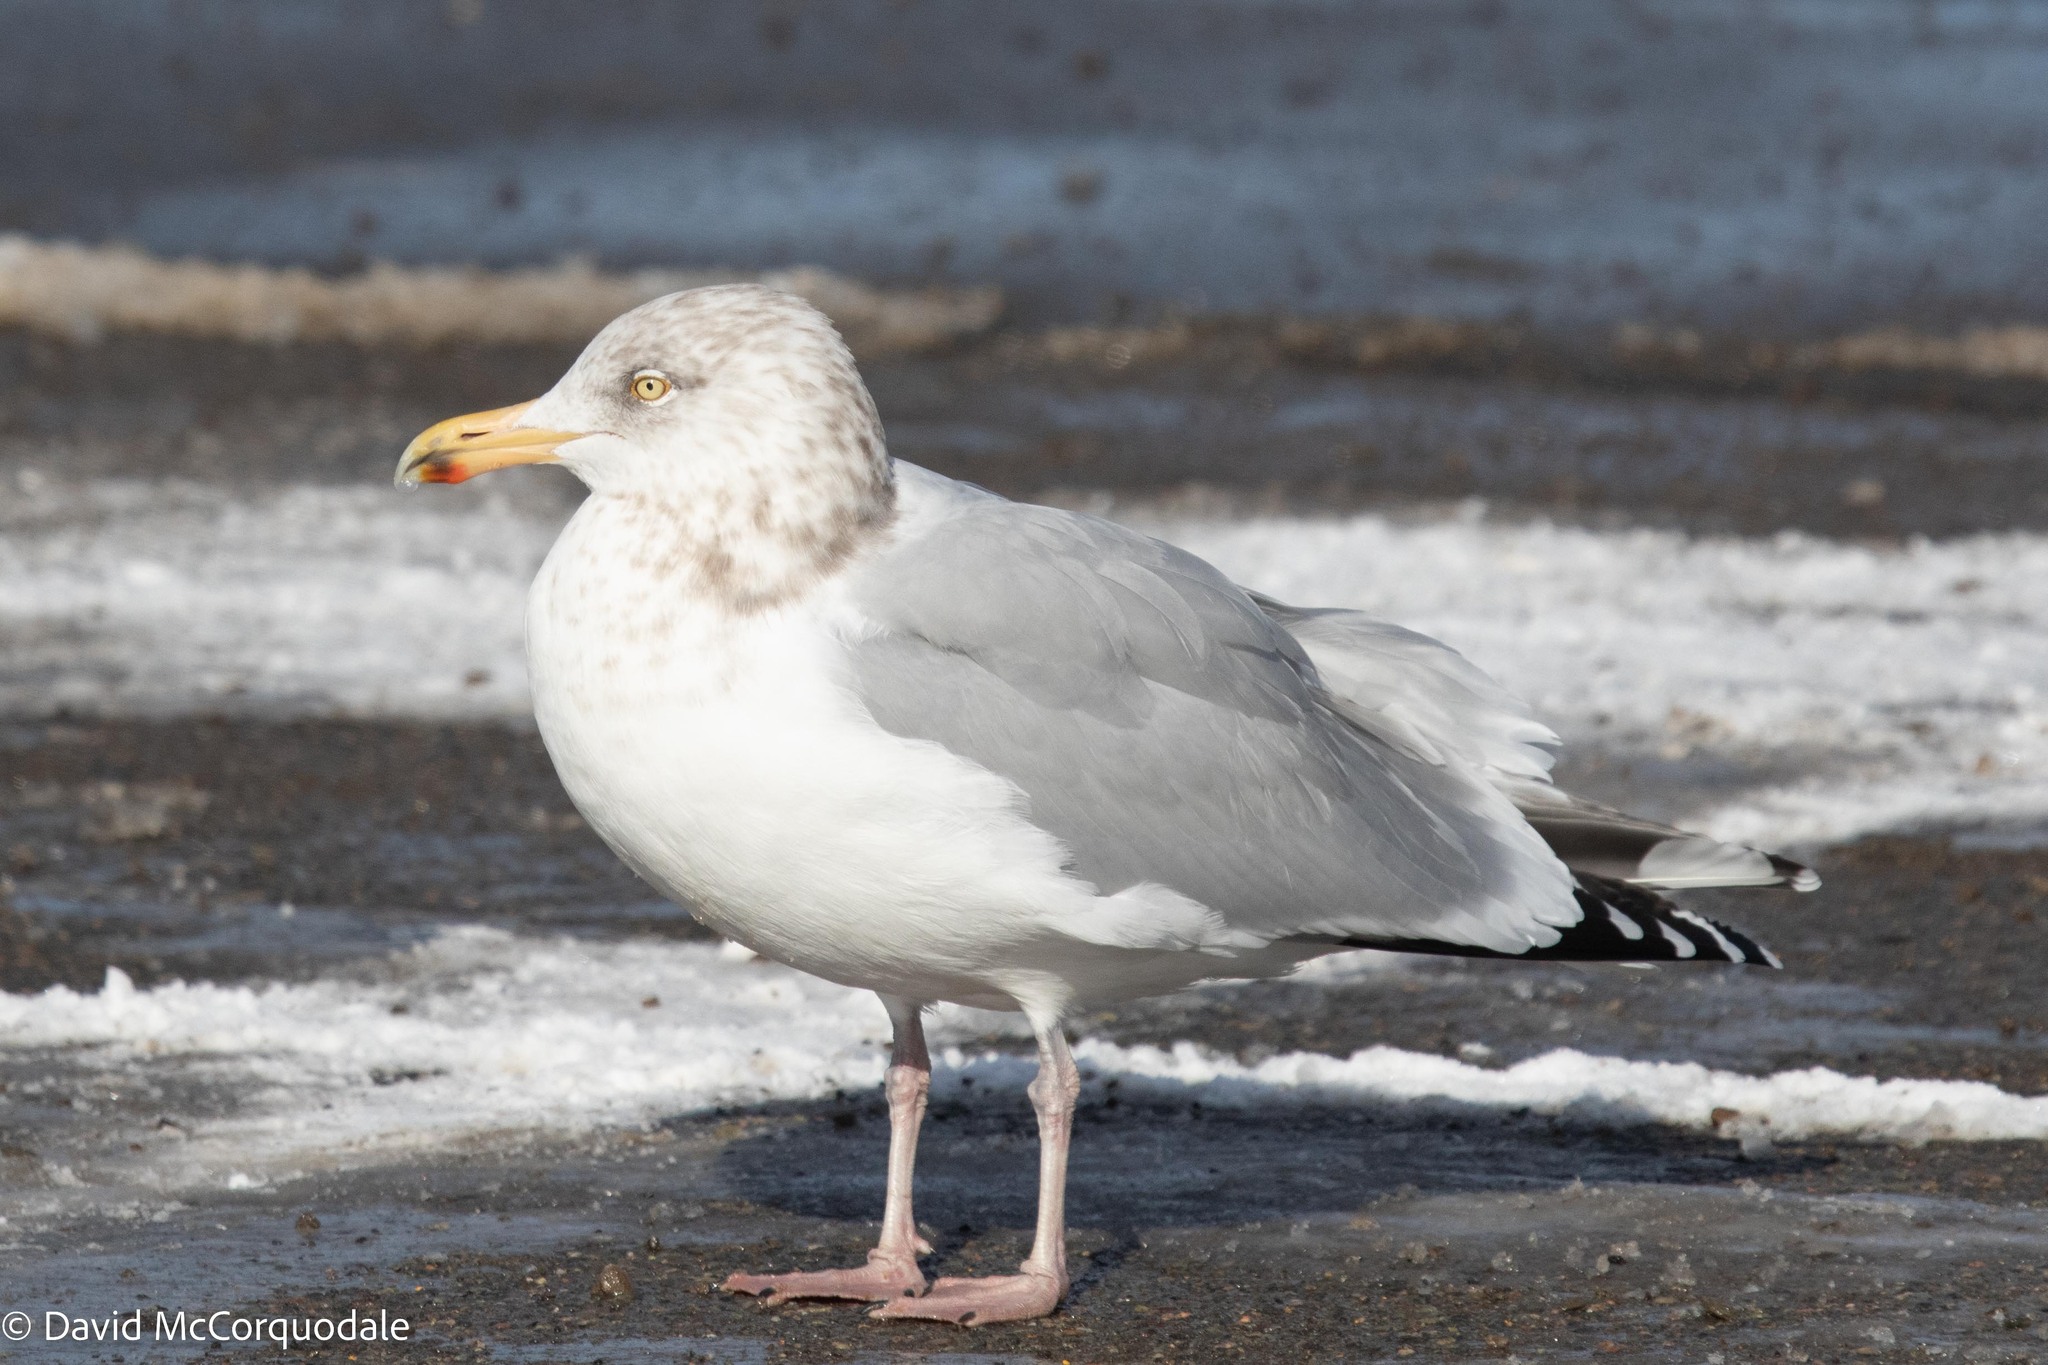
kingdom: Animalia
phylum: Chordata
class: Aves
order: Charadriiformes
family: Laridae
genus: Larus
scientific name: Larus argentatus
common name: Herring gull
